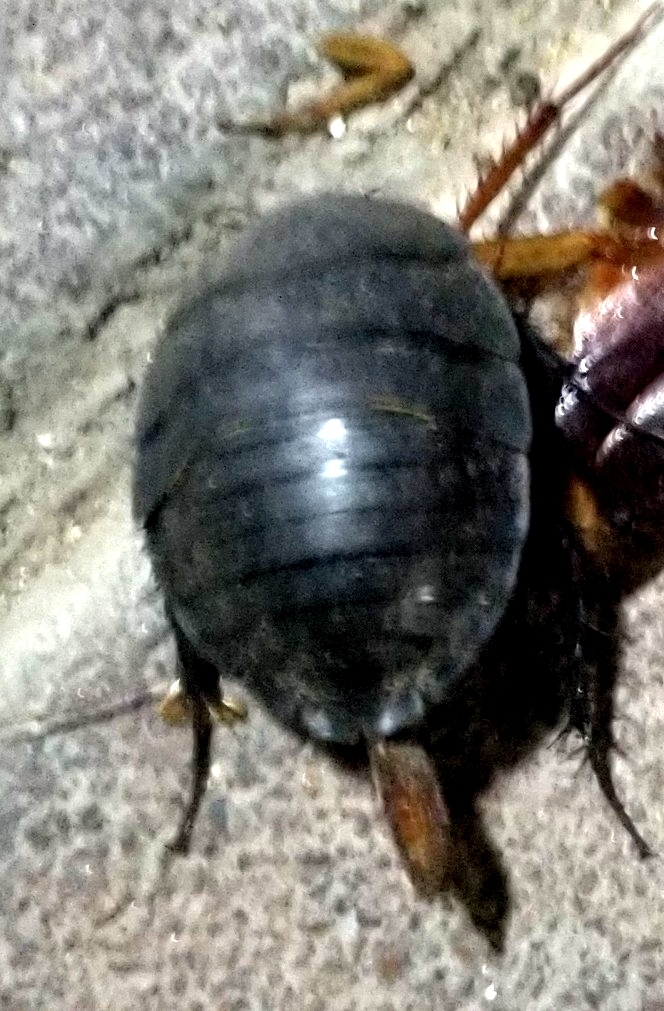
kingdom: Animalia
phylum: Arthropoda
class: Insecta
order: Blattodea
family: Corydiidae
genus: Polyphaga
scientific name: Polyphaga aegyptiaca
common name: Egyptian cockroach
